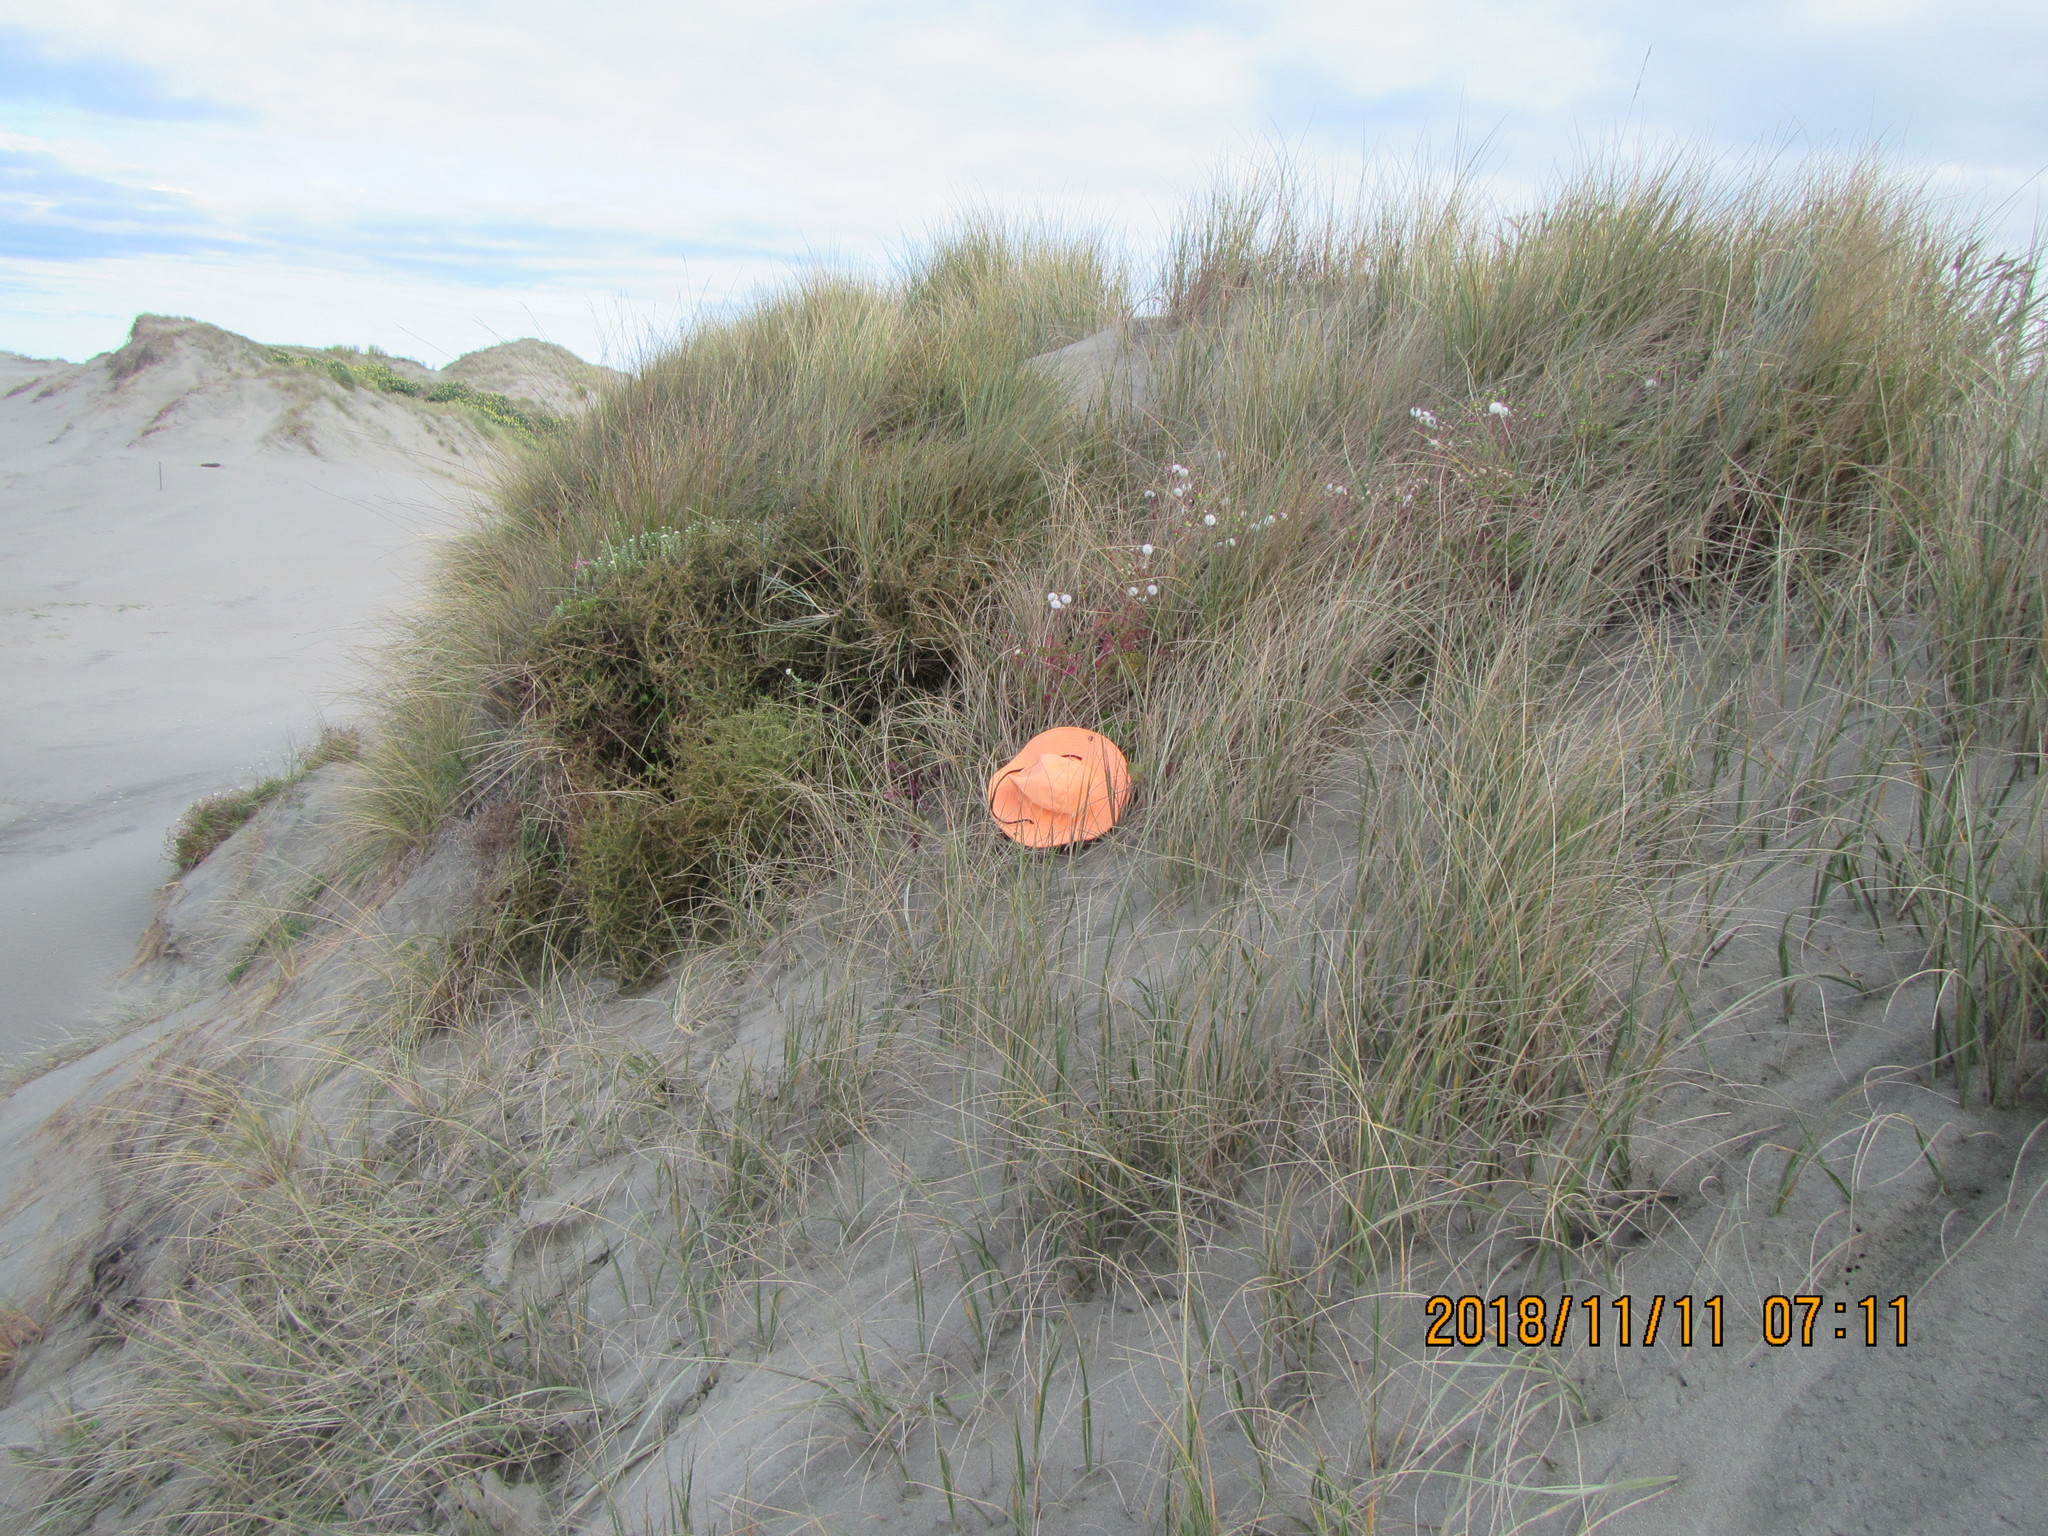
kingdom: Plantae
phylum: Tracheophyta
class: Magnoliopsida
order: Asterales
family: Asteraceae
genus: Senecio
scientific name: Senecio elegans
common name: Purple groundsel
